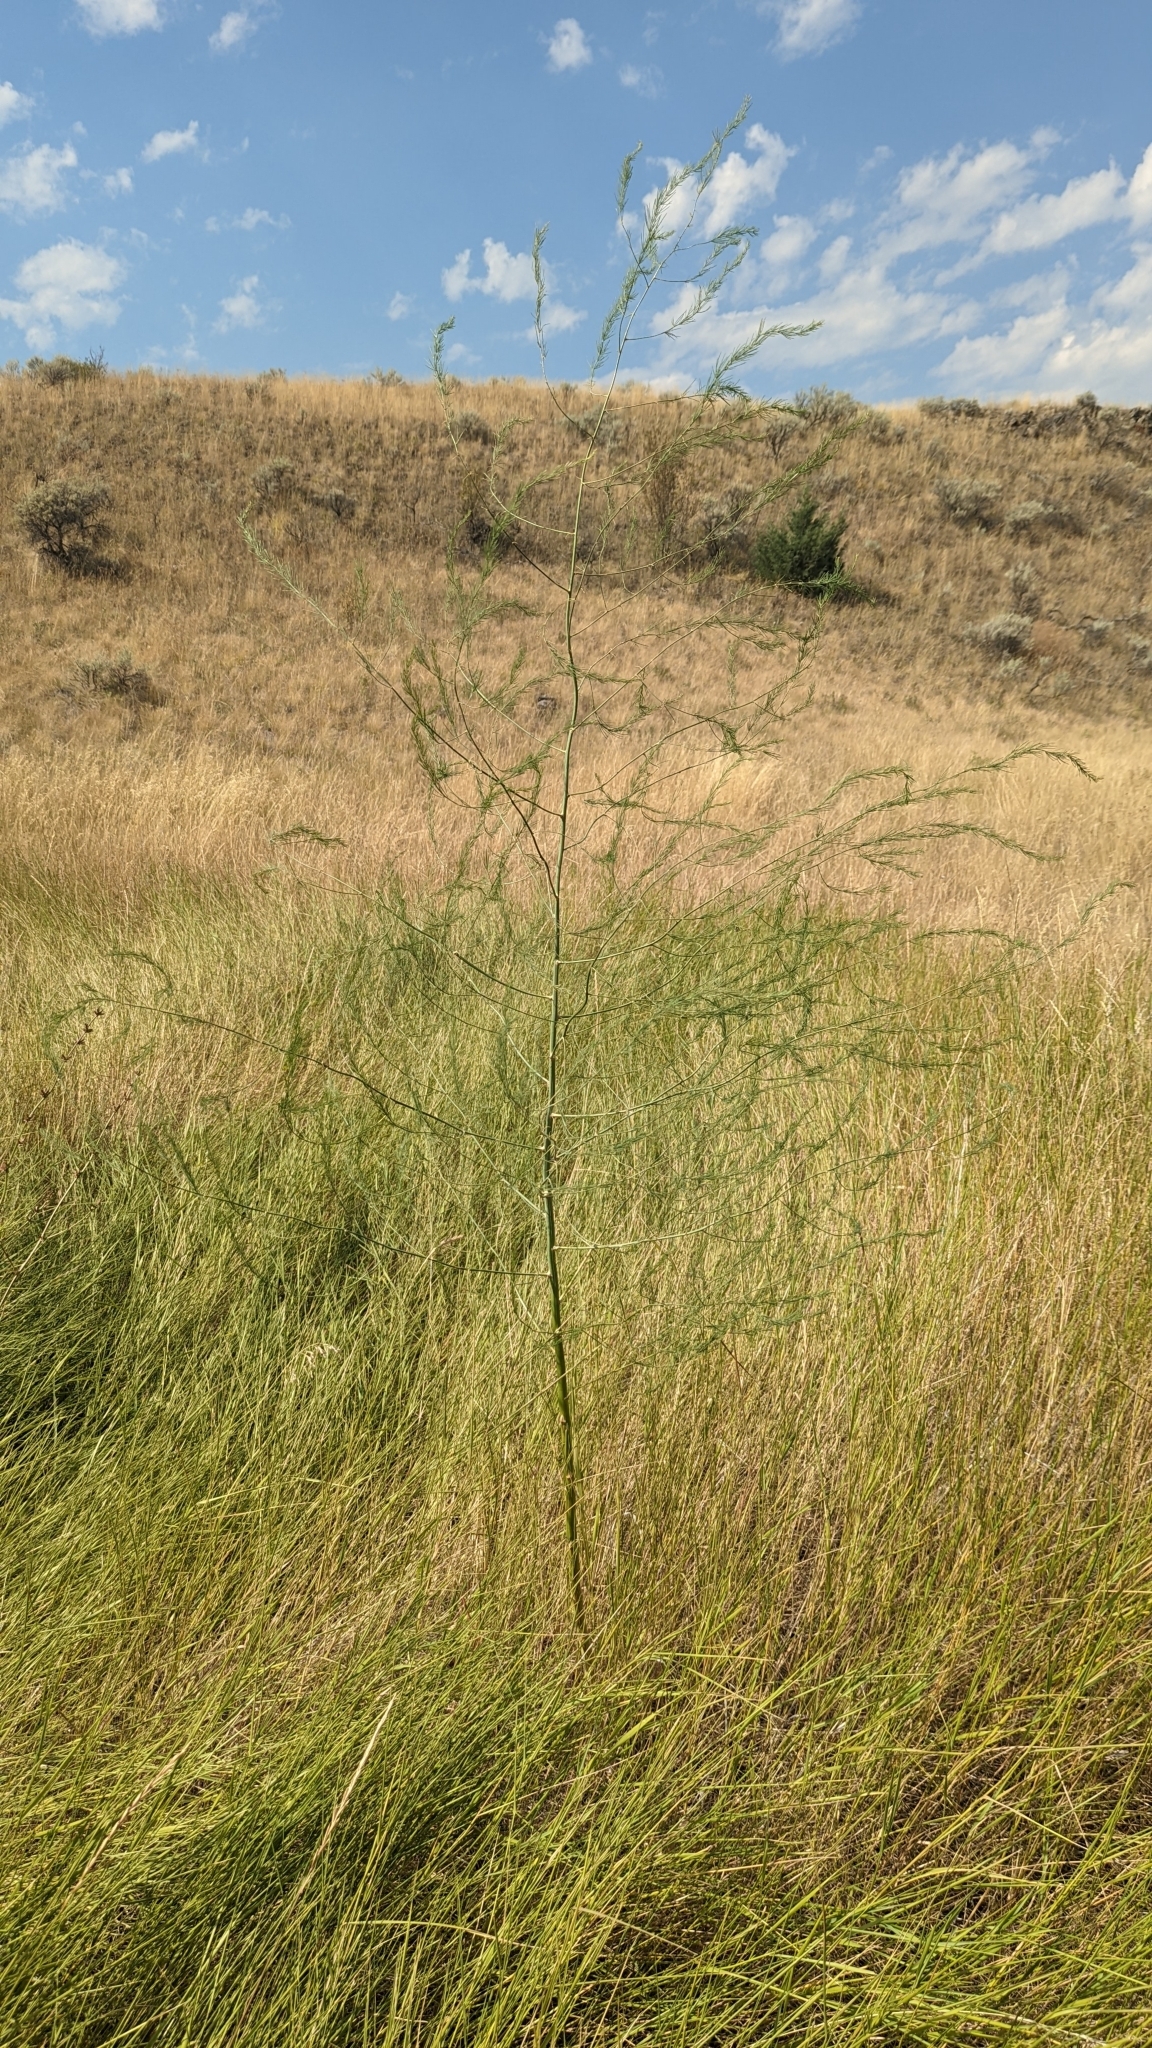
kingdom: Plantae
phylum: Tracheophyta
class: Liliopsida
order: Asparagales
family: Asparagaceae
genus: Asparagus
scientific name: Asparagus officinalis
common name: Garden asparagus
